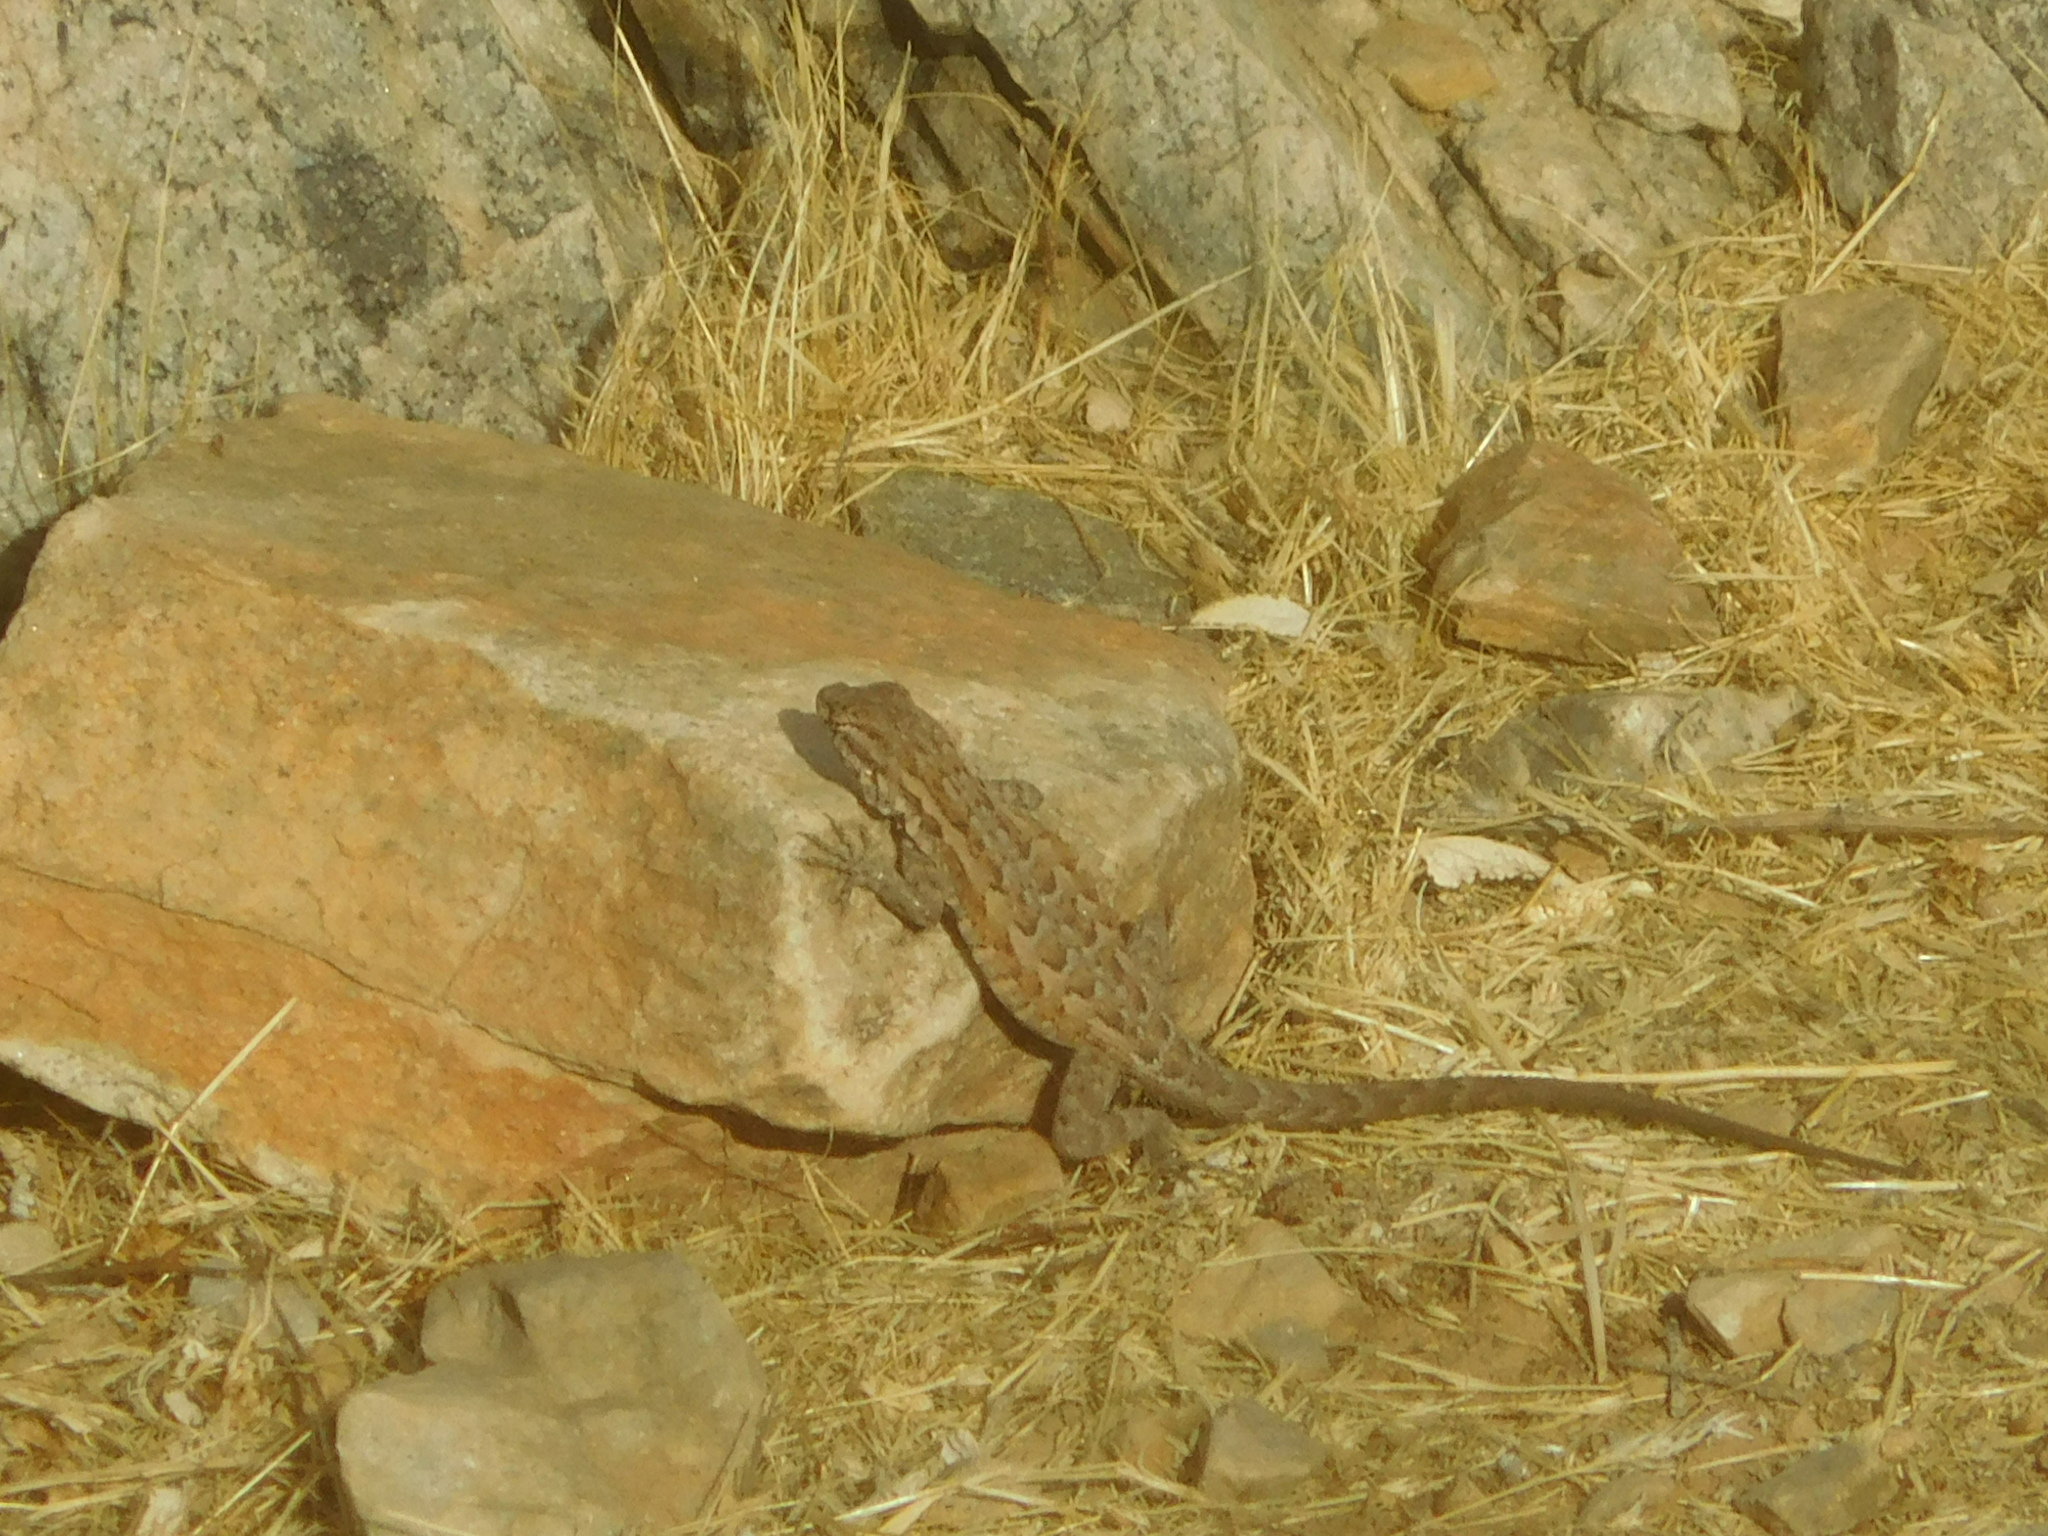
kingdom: Animalia
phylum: Chordata
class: Squamata
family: Phrynosomatidae
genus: Uta
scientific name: Uta stansburiana
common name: Side-blotched lizard
